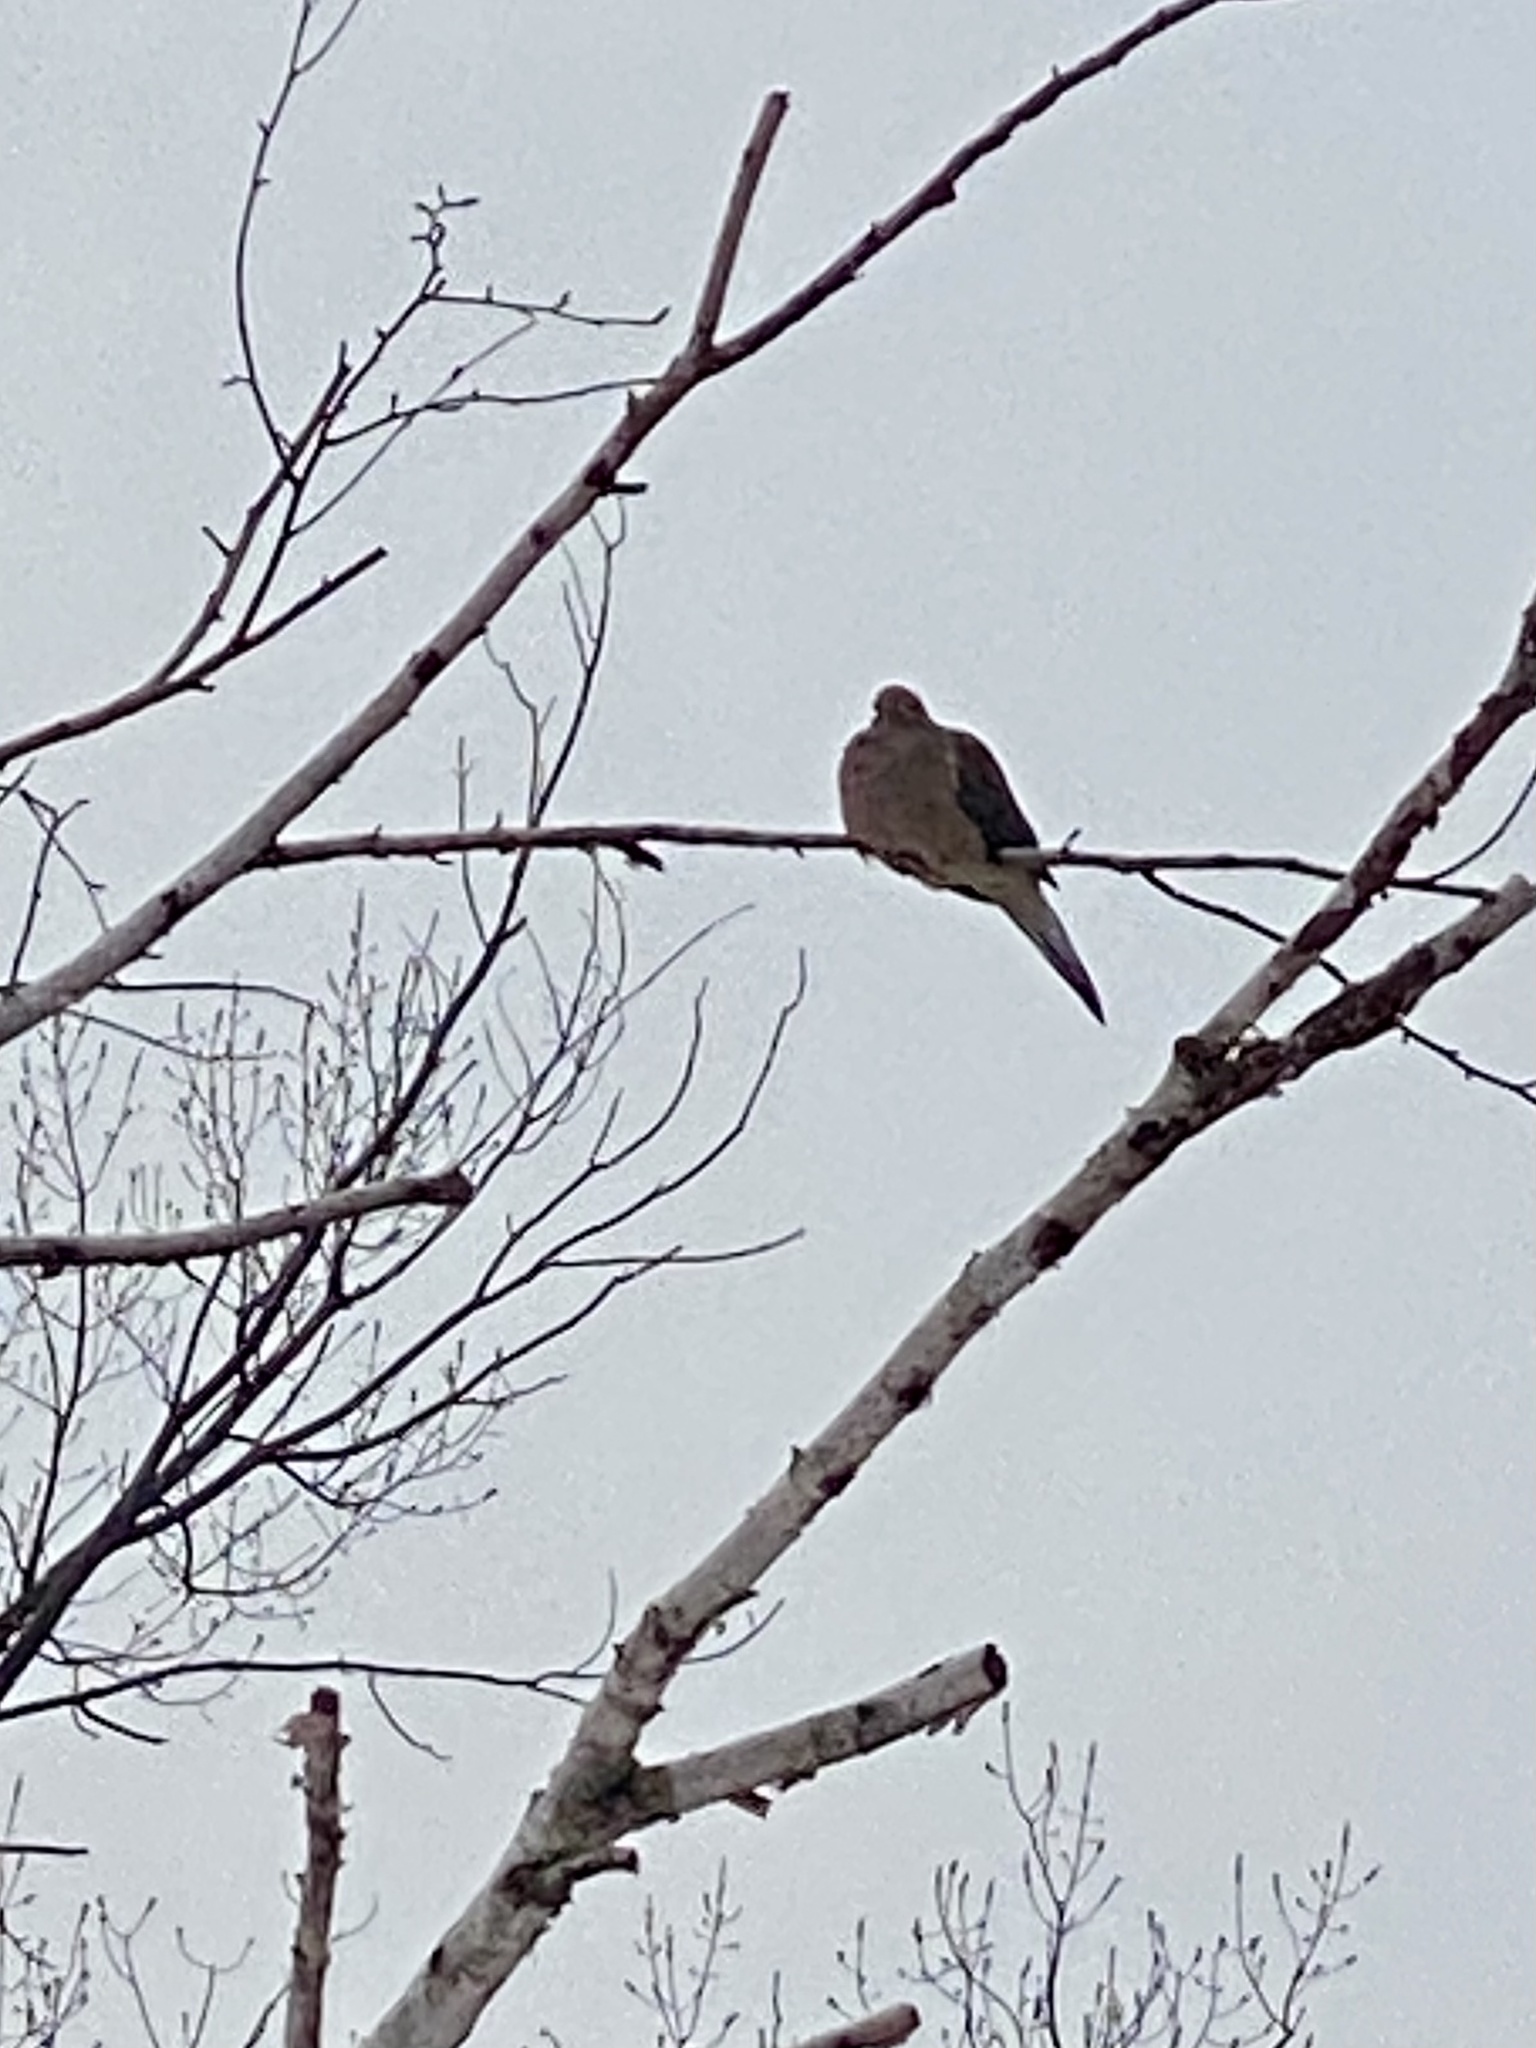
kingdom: Animalia
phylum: Chordata
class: Aves
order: Columbiformes
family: Columbidae
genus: Zenaida
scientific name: Zenaida macroura
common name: Mourning dove
